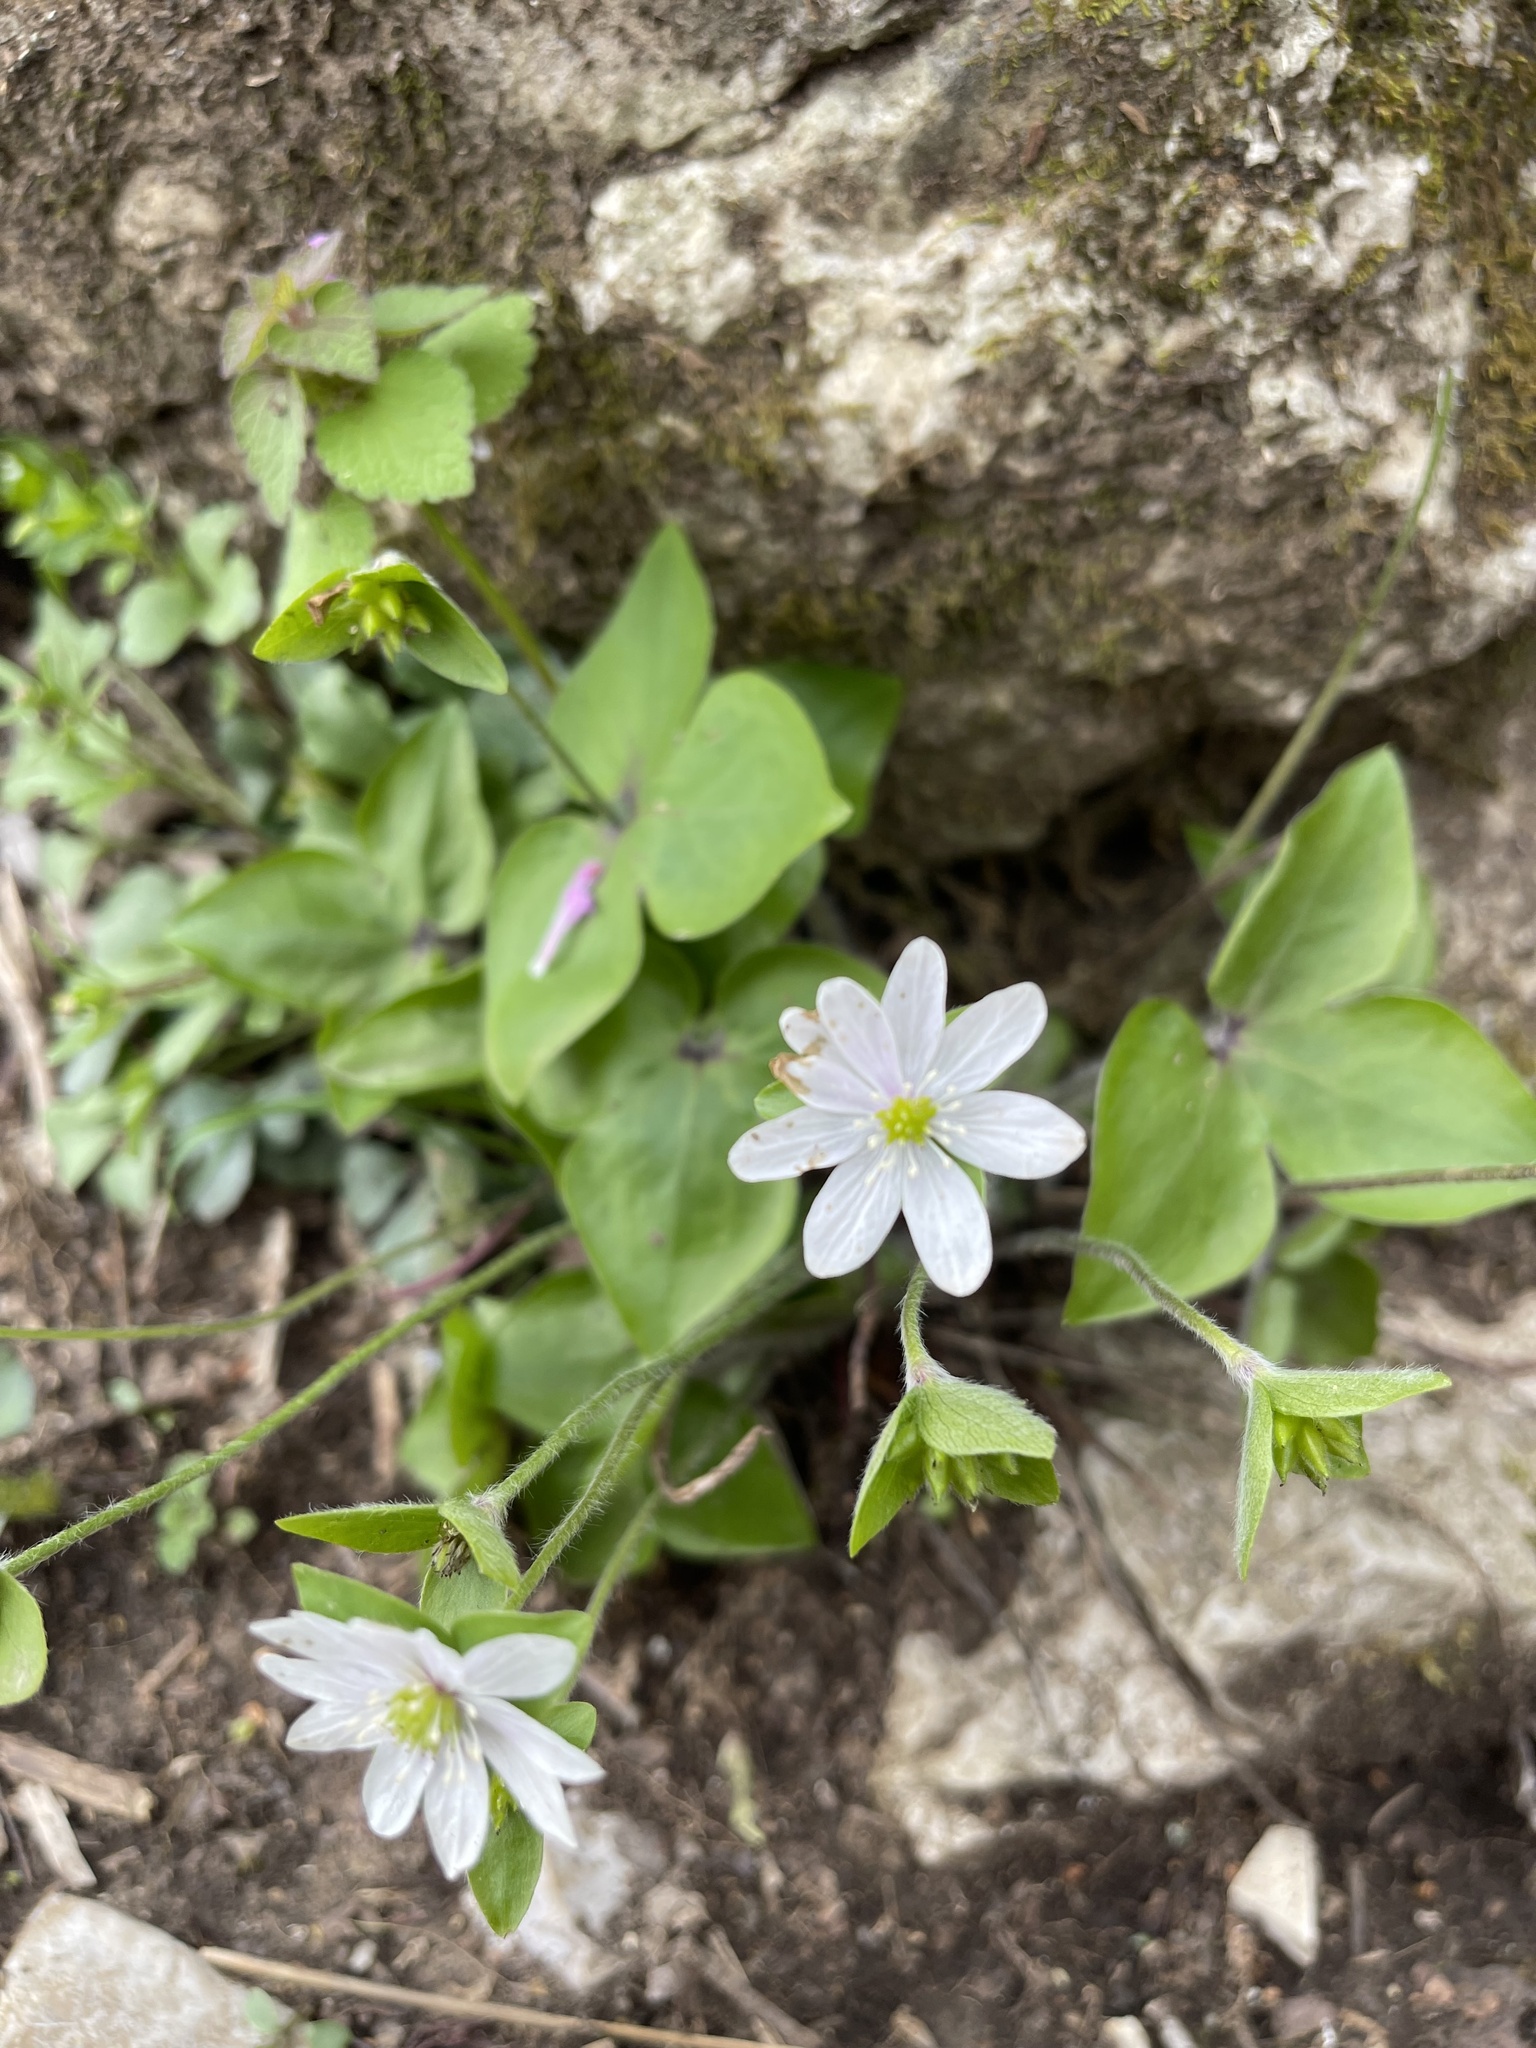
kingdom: Plantae
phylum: Tracheophyta
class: Magnoliopsida
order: Ranunculales
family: Ranunculaceae
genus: Hepatica
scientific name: Hepatica acutiloba
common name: Sharp-lobed hepatica
